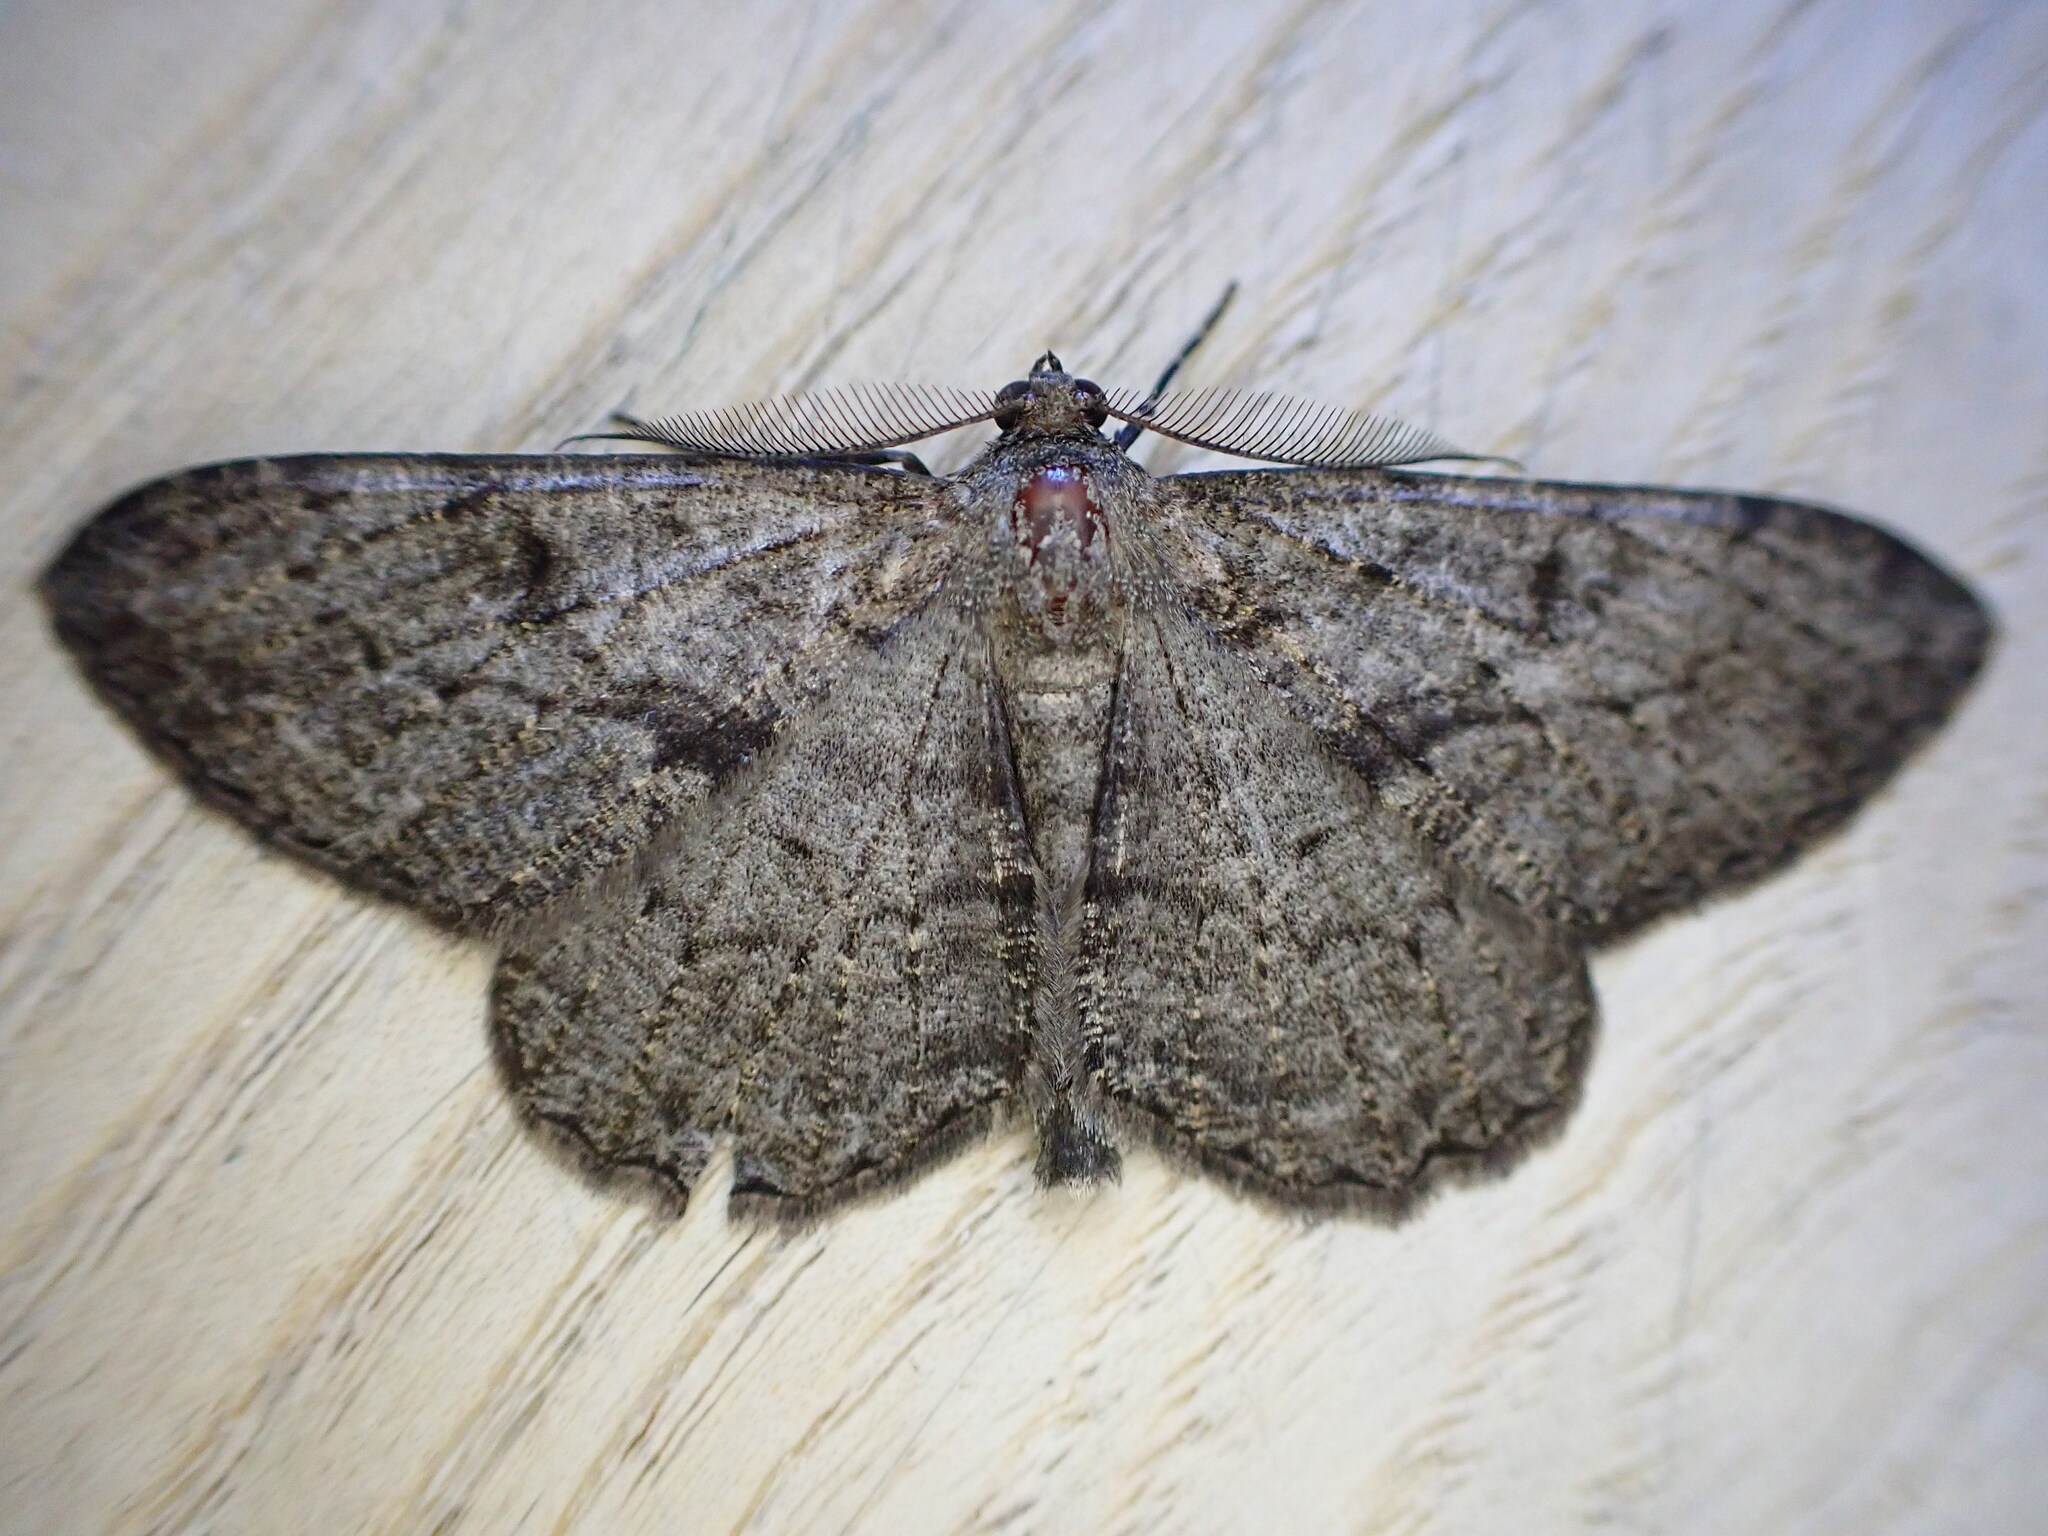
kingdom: Animalia
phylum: Arthropoda
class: Insecta
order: Lepidoptera
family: Geometridae
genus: Peribatodes
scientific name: Peribatodes rhomboidaria
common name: Willow beauty
